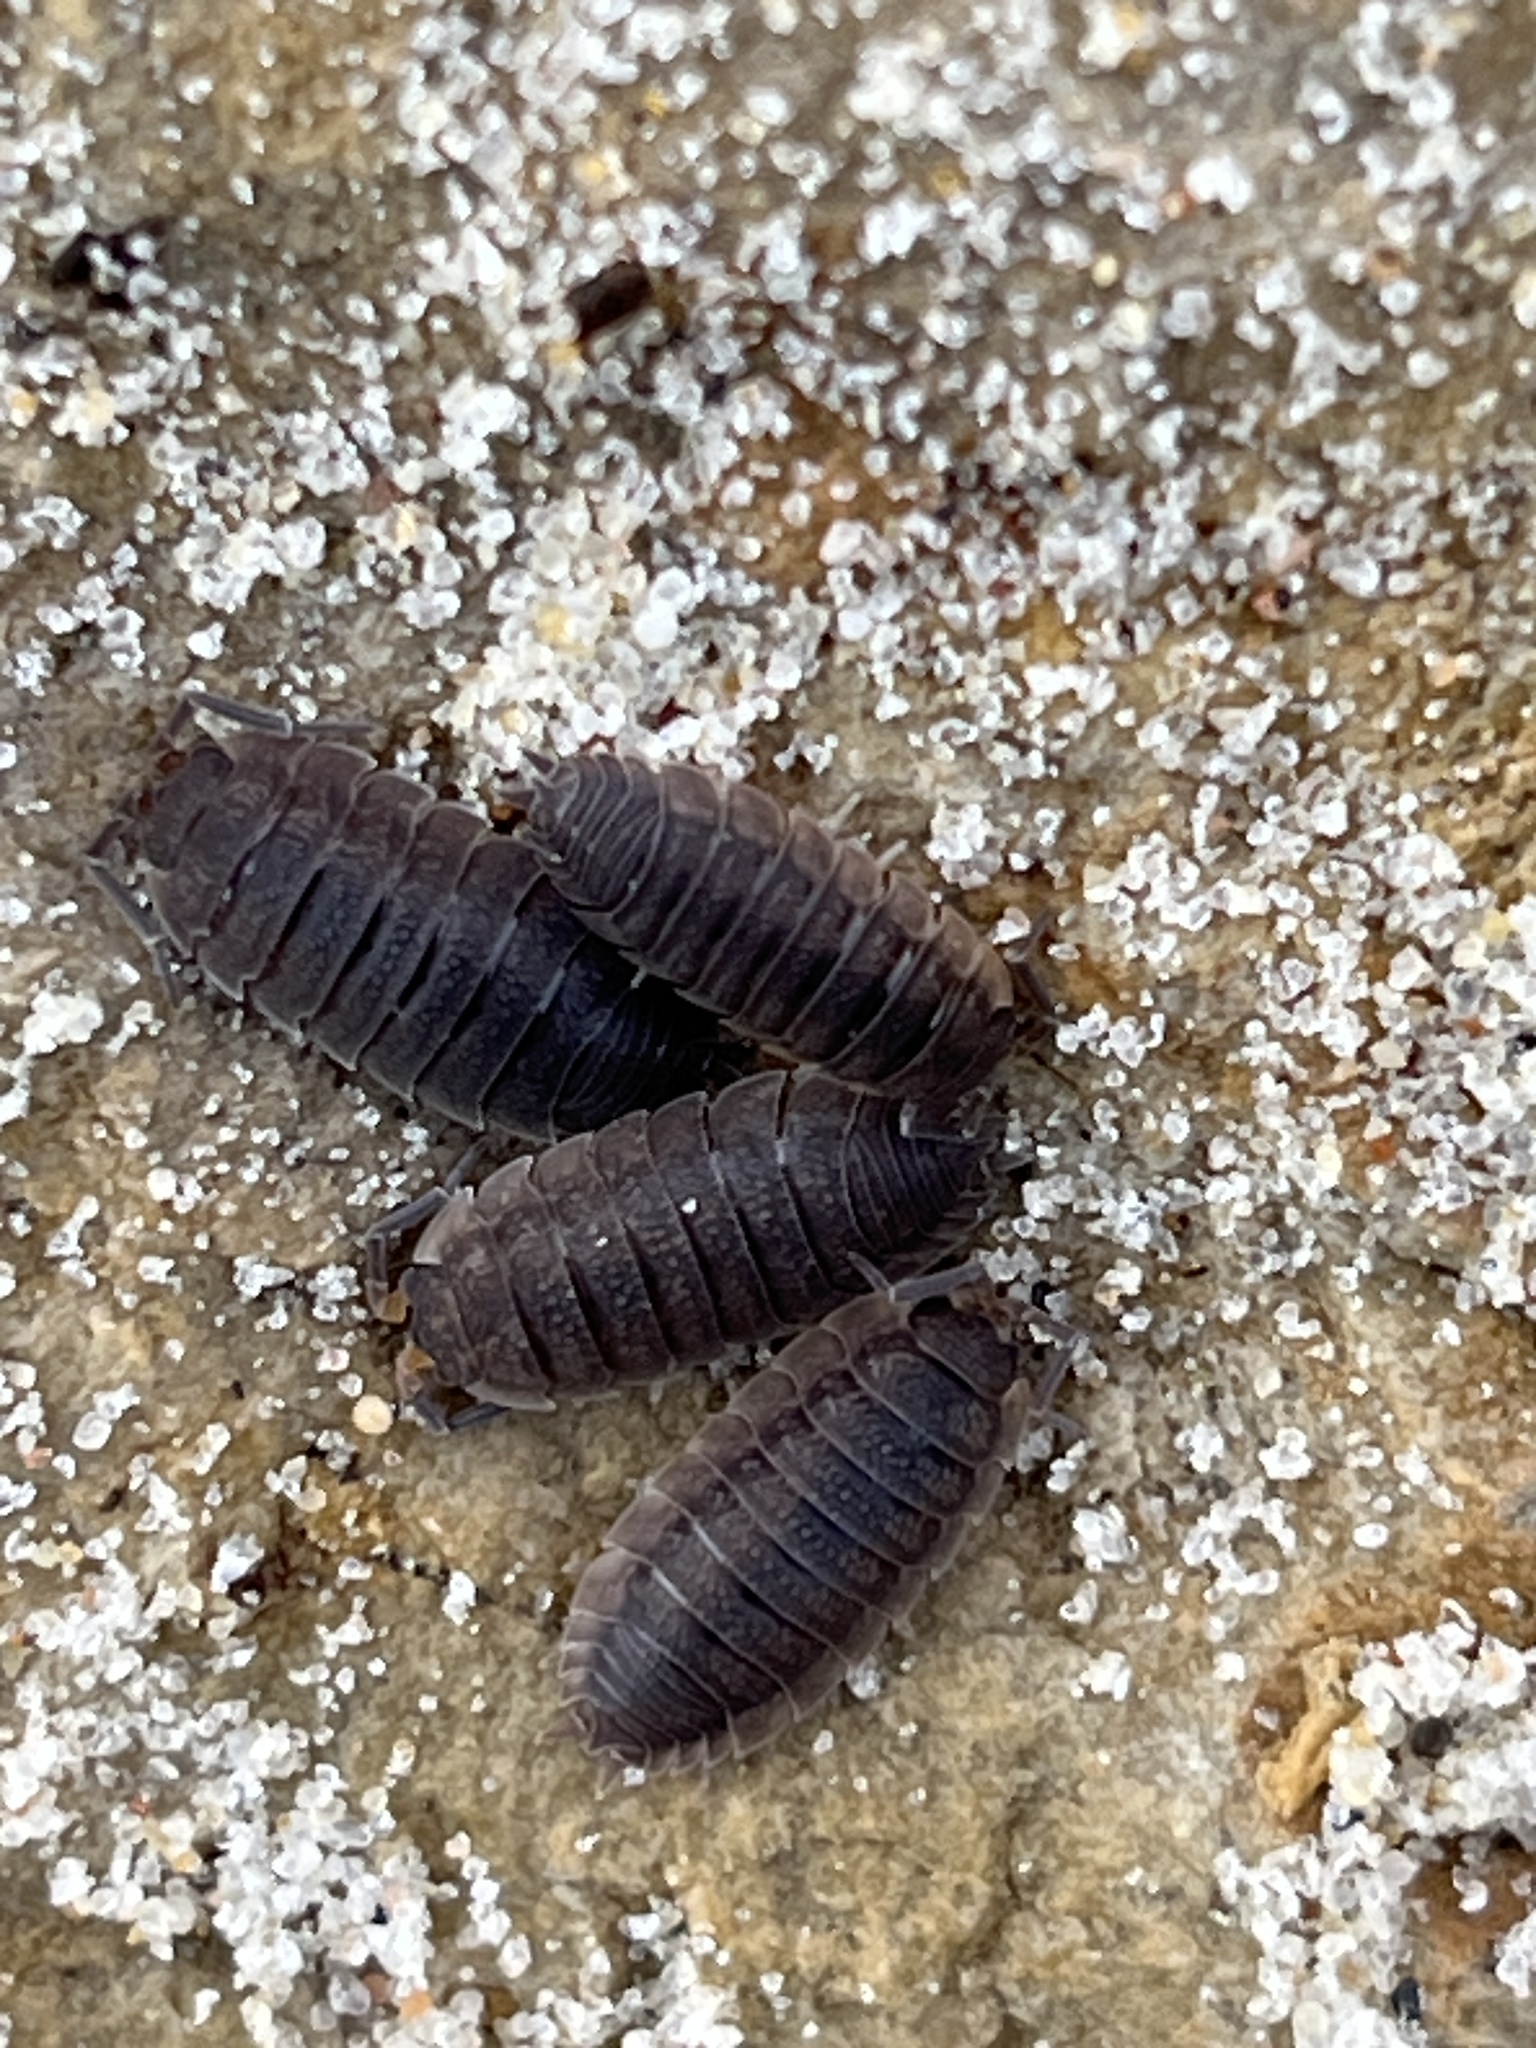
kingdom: Animalia
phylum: Arthropoda
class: Malacostraca
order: Isopoda
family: Porcellionidae
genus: Porcellio
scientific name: Porcellio scaber
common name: Common rough woodlouse
